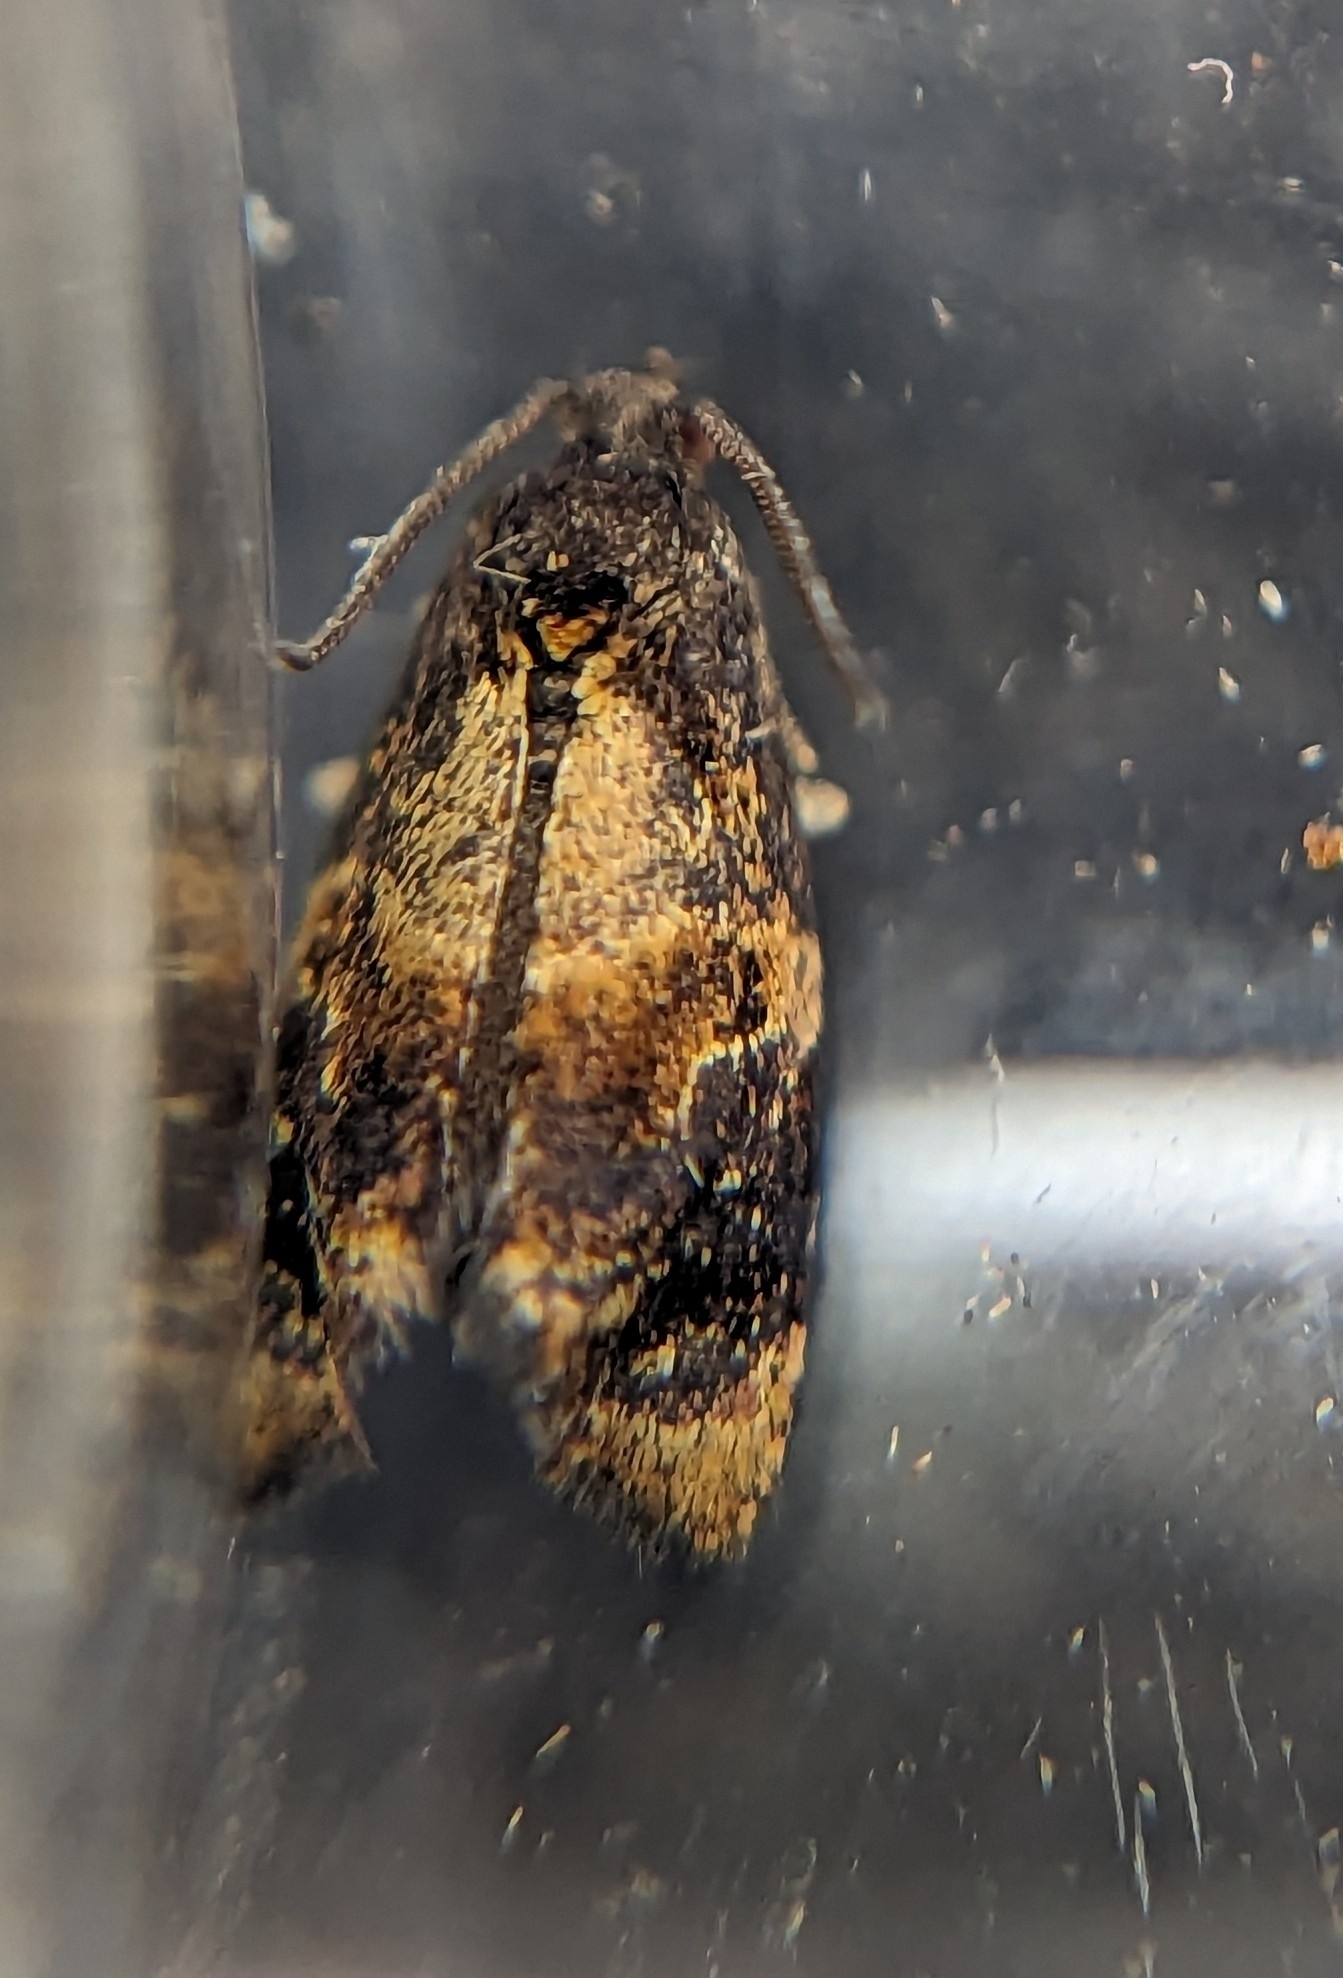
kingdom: Animalia
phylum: Arthropoda
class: Insecta
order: Lepidoptera
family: Tortricidae
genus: Ditula
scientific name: Ditula angustiorana
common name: Red-barred tortrix
